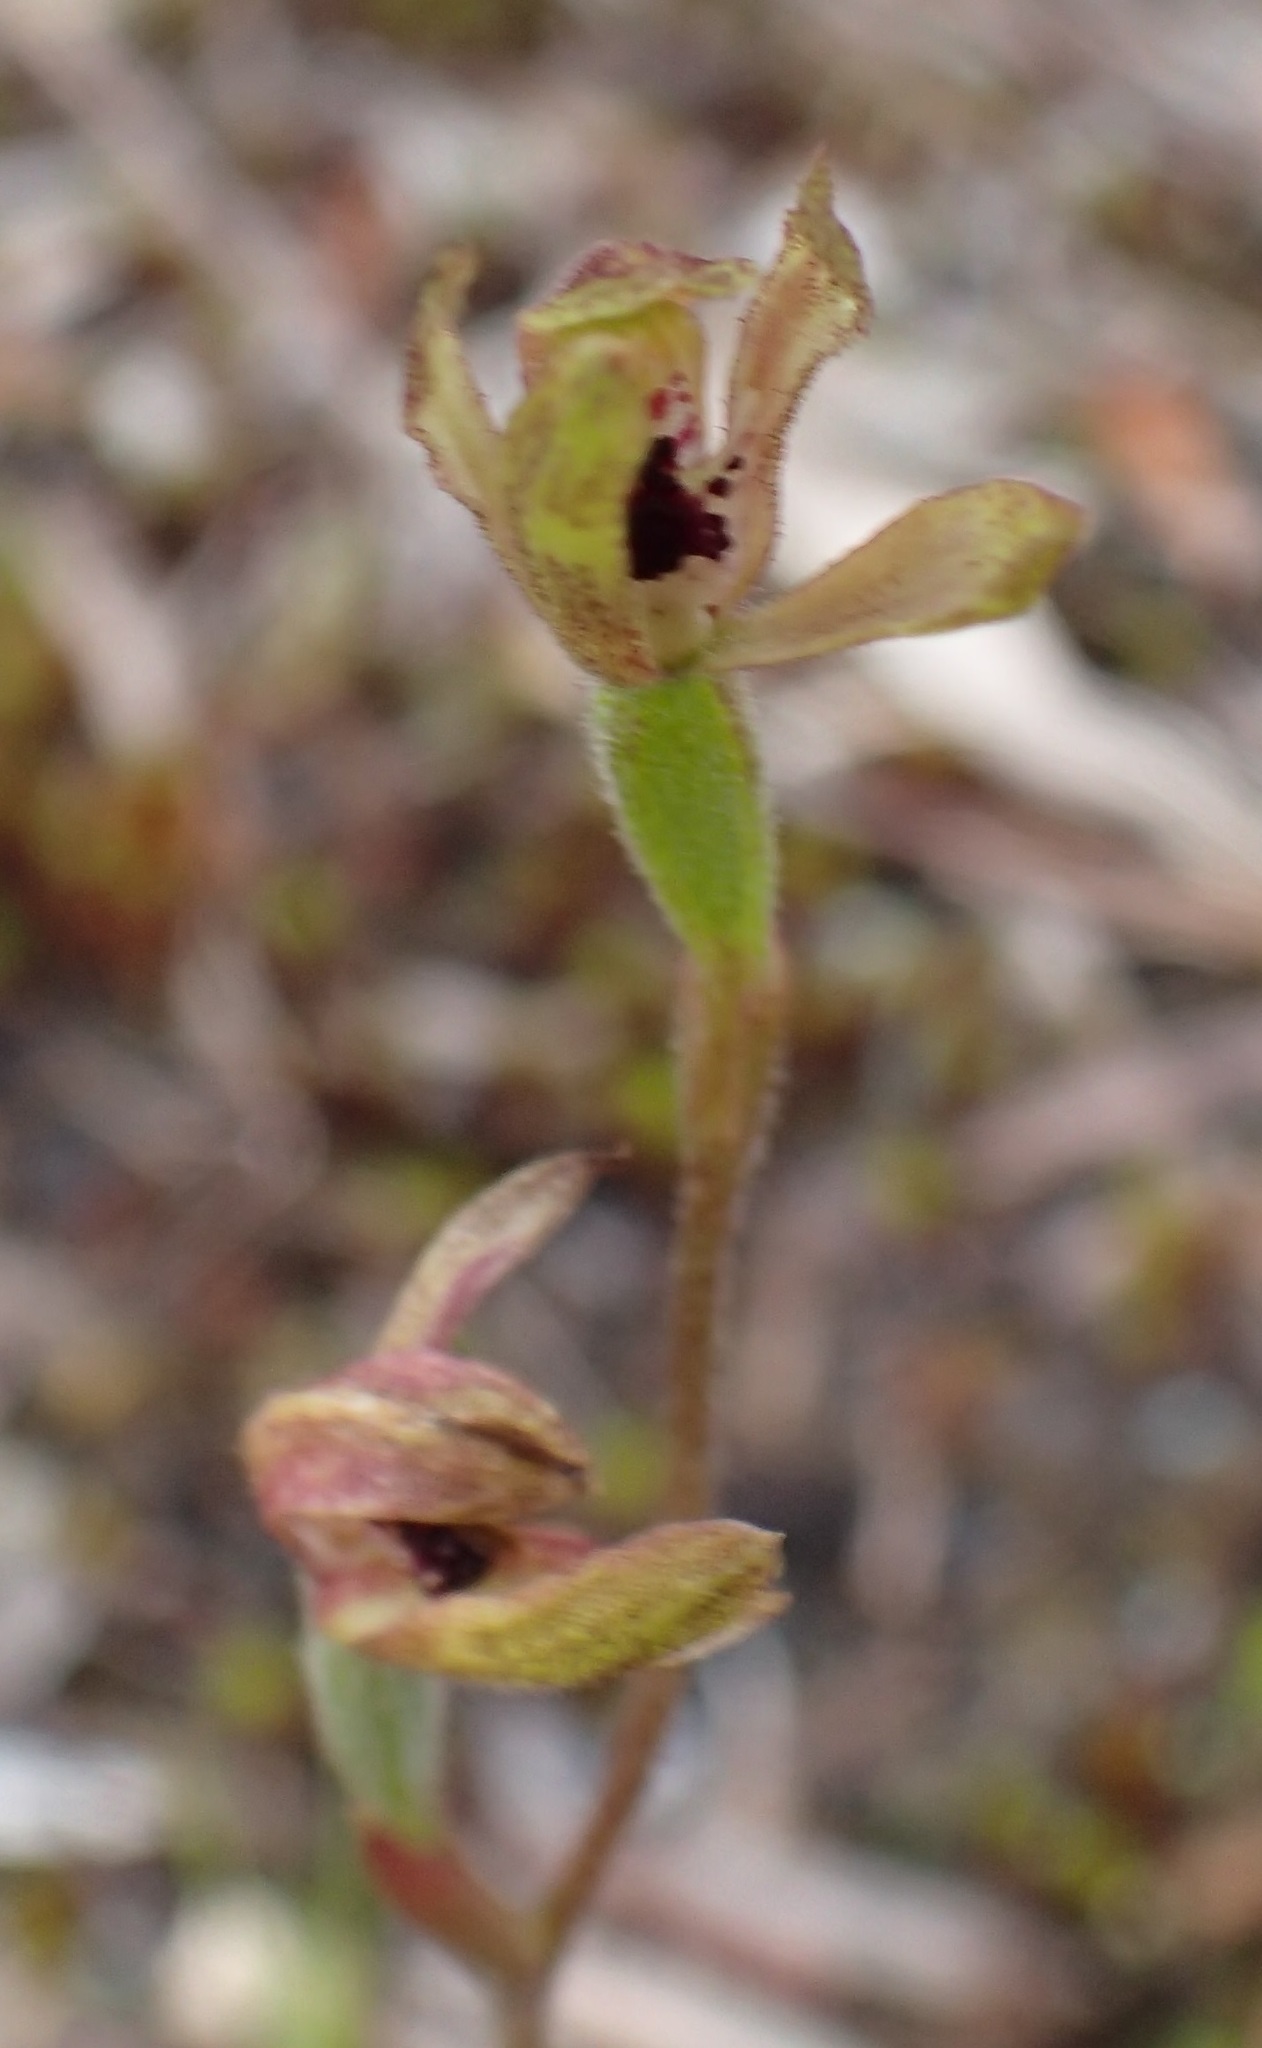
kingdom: Plantae
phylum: Tracheophyta
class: Liliopsida
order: Asparagales
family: Orchidaceae
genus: Caladenia
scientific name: Caladenia transitoria
